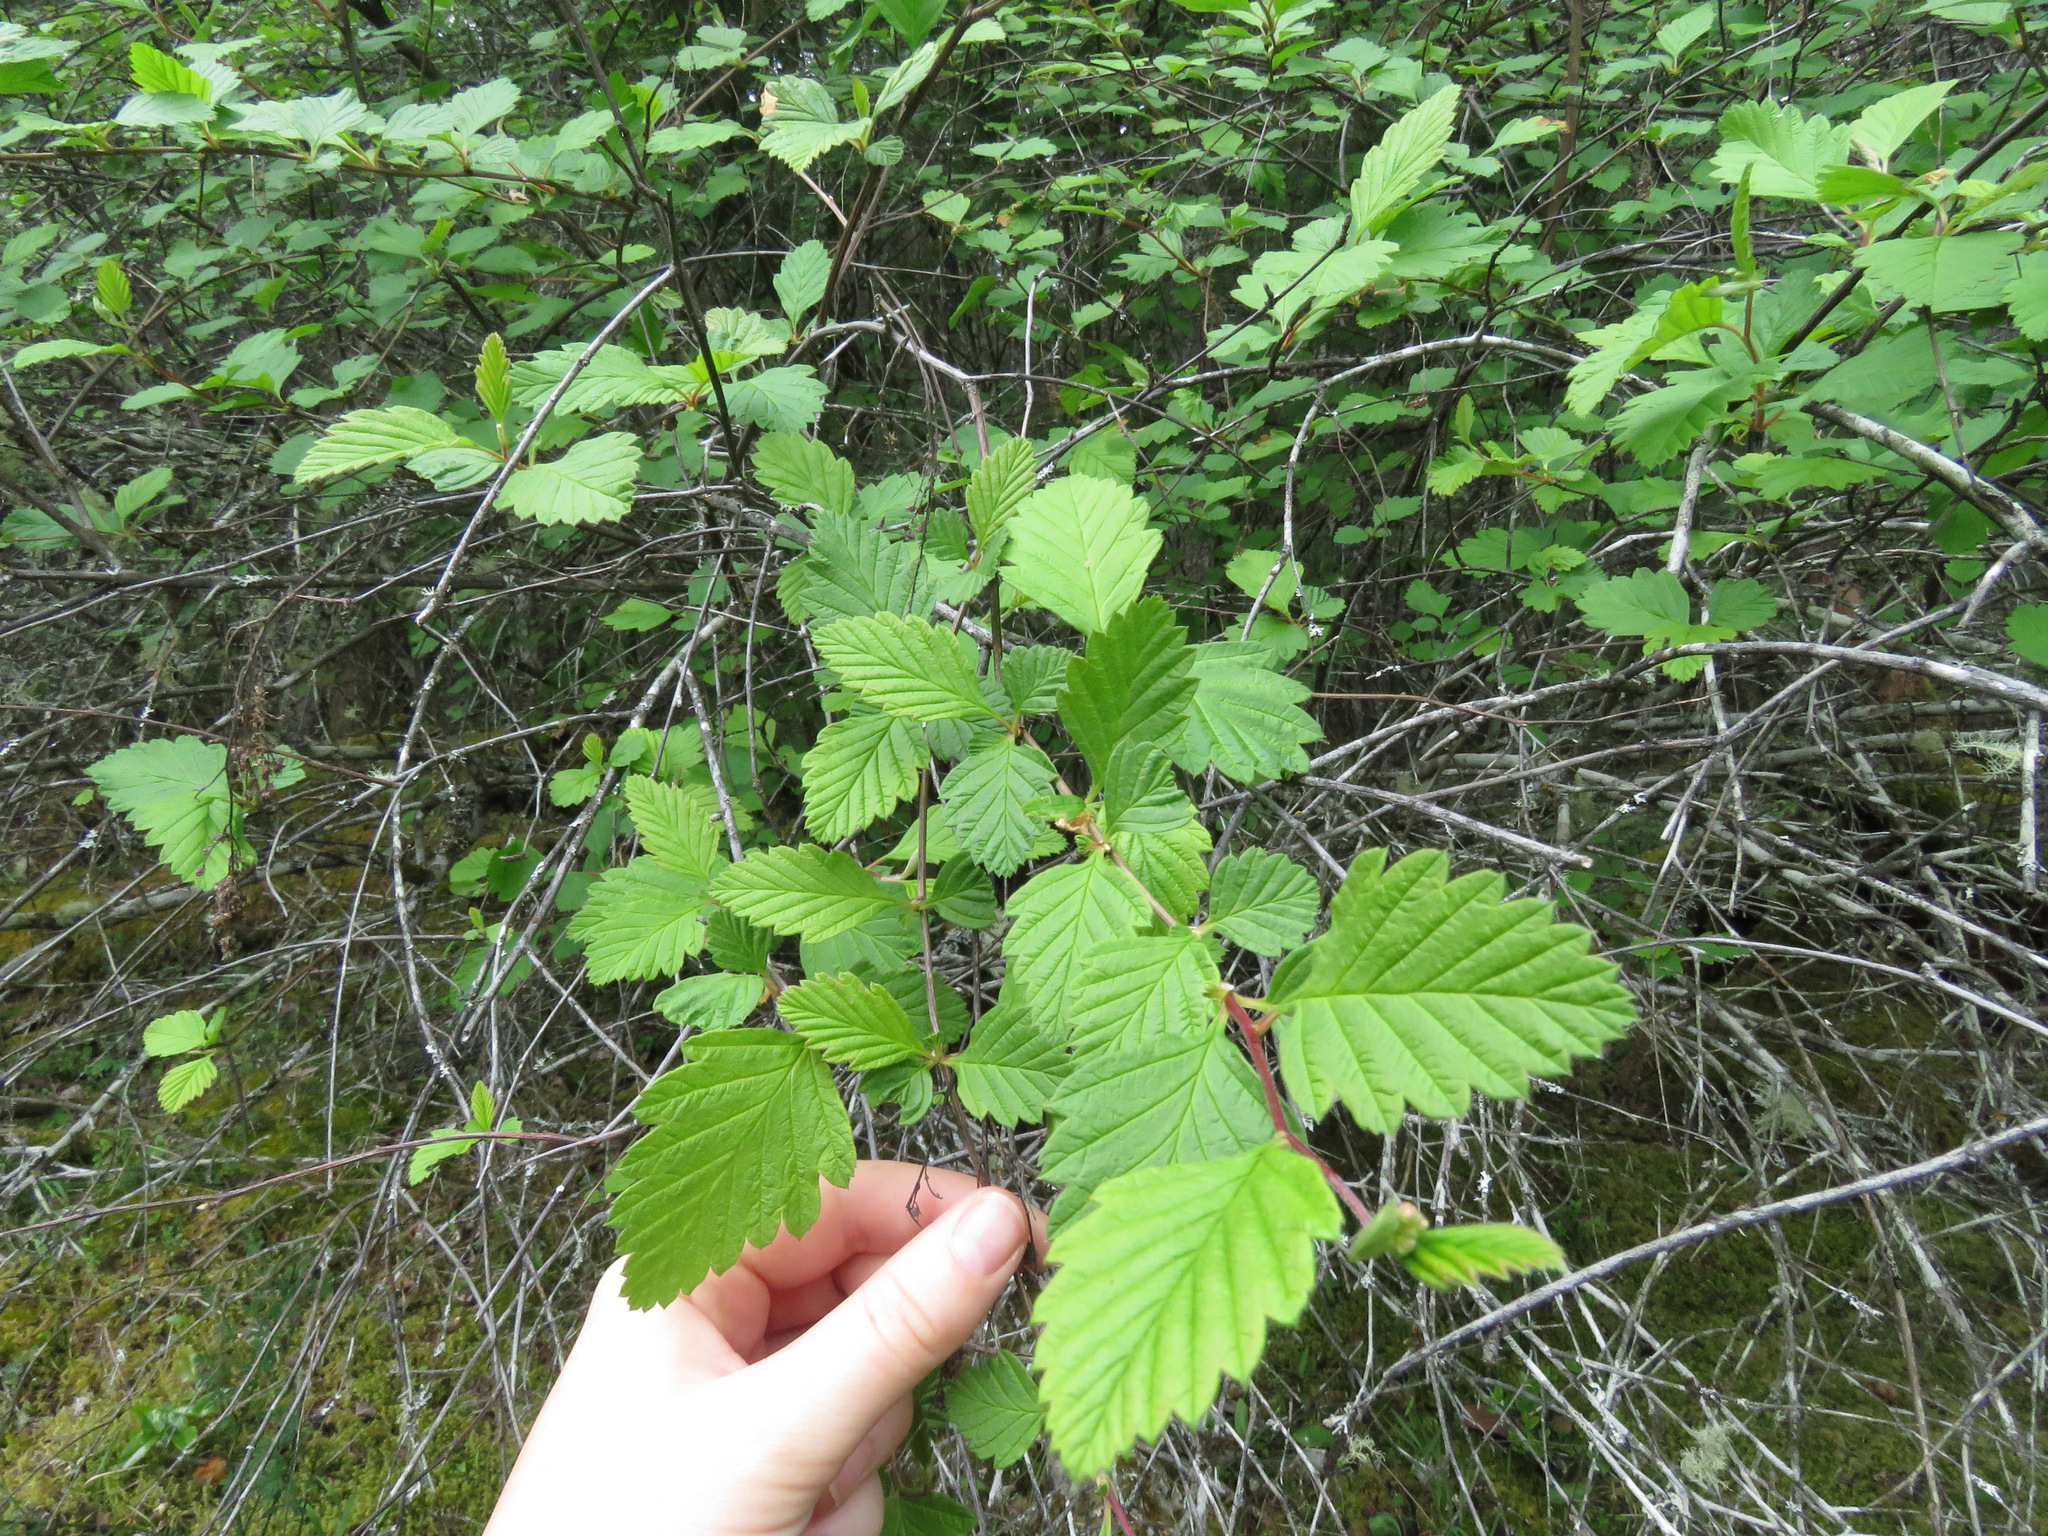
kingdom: Plantae
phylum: Tracheophyta
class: Magnoliopsida
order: Rosales
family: Rosaceae
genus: Holodiscus
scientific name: Holodiscus discolor
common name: Oceanspray
